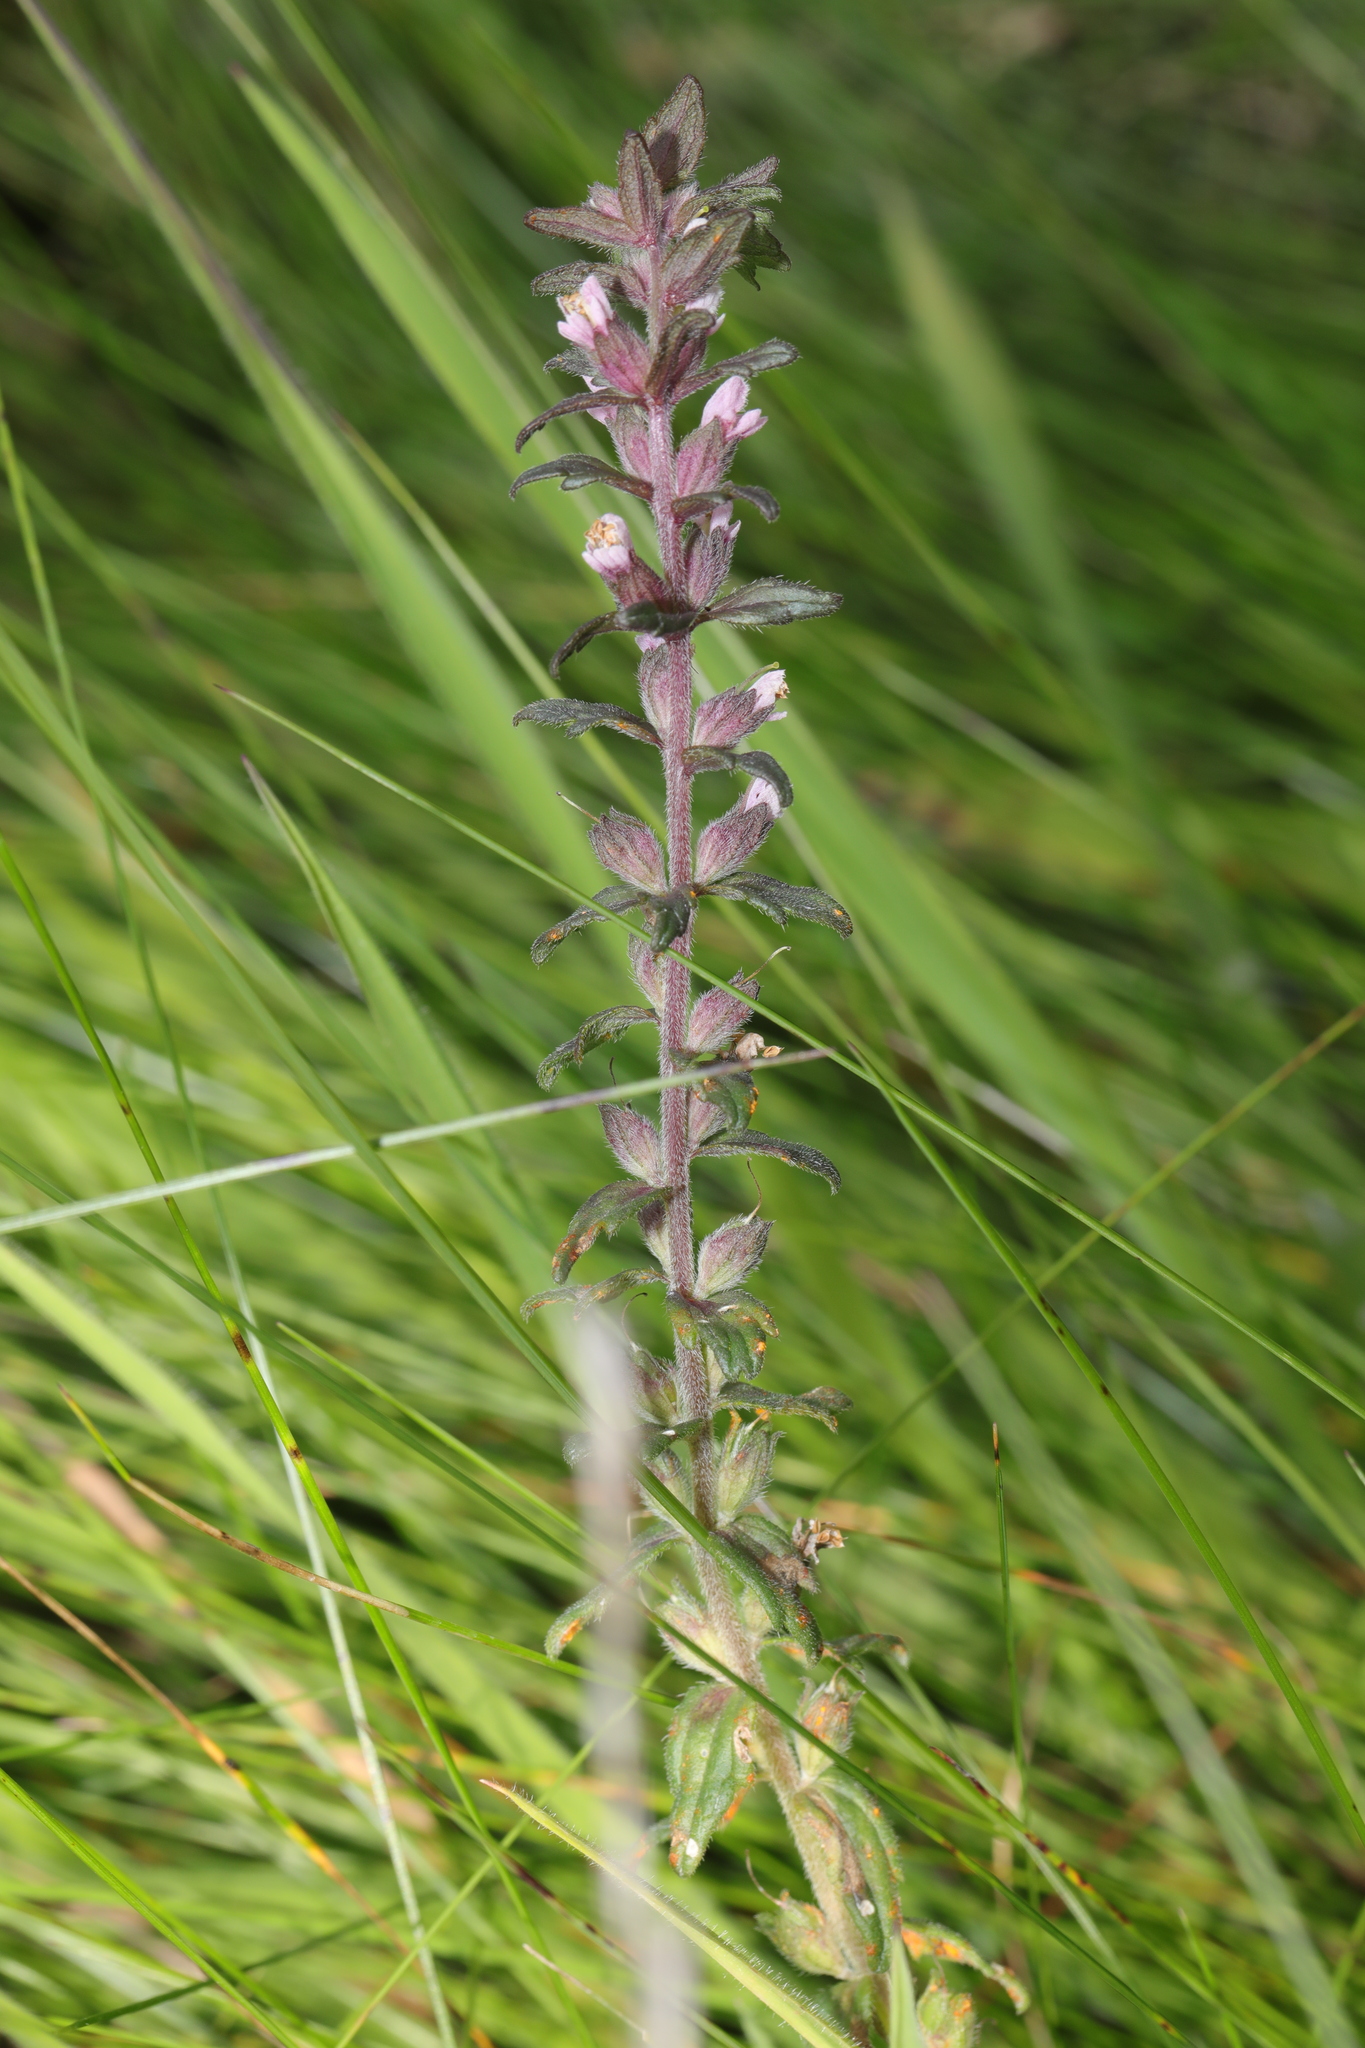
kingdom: Plantae
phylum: Tracheophyta
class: Magnoliopsida
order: Lamiales
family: Orobanchaceae
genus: Odontites
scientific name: Odontites vernus
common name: Red bartsia
